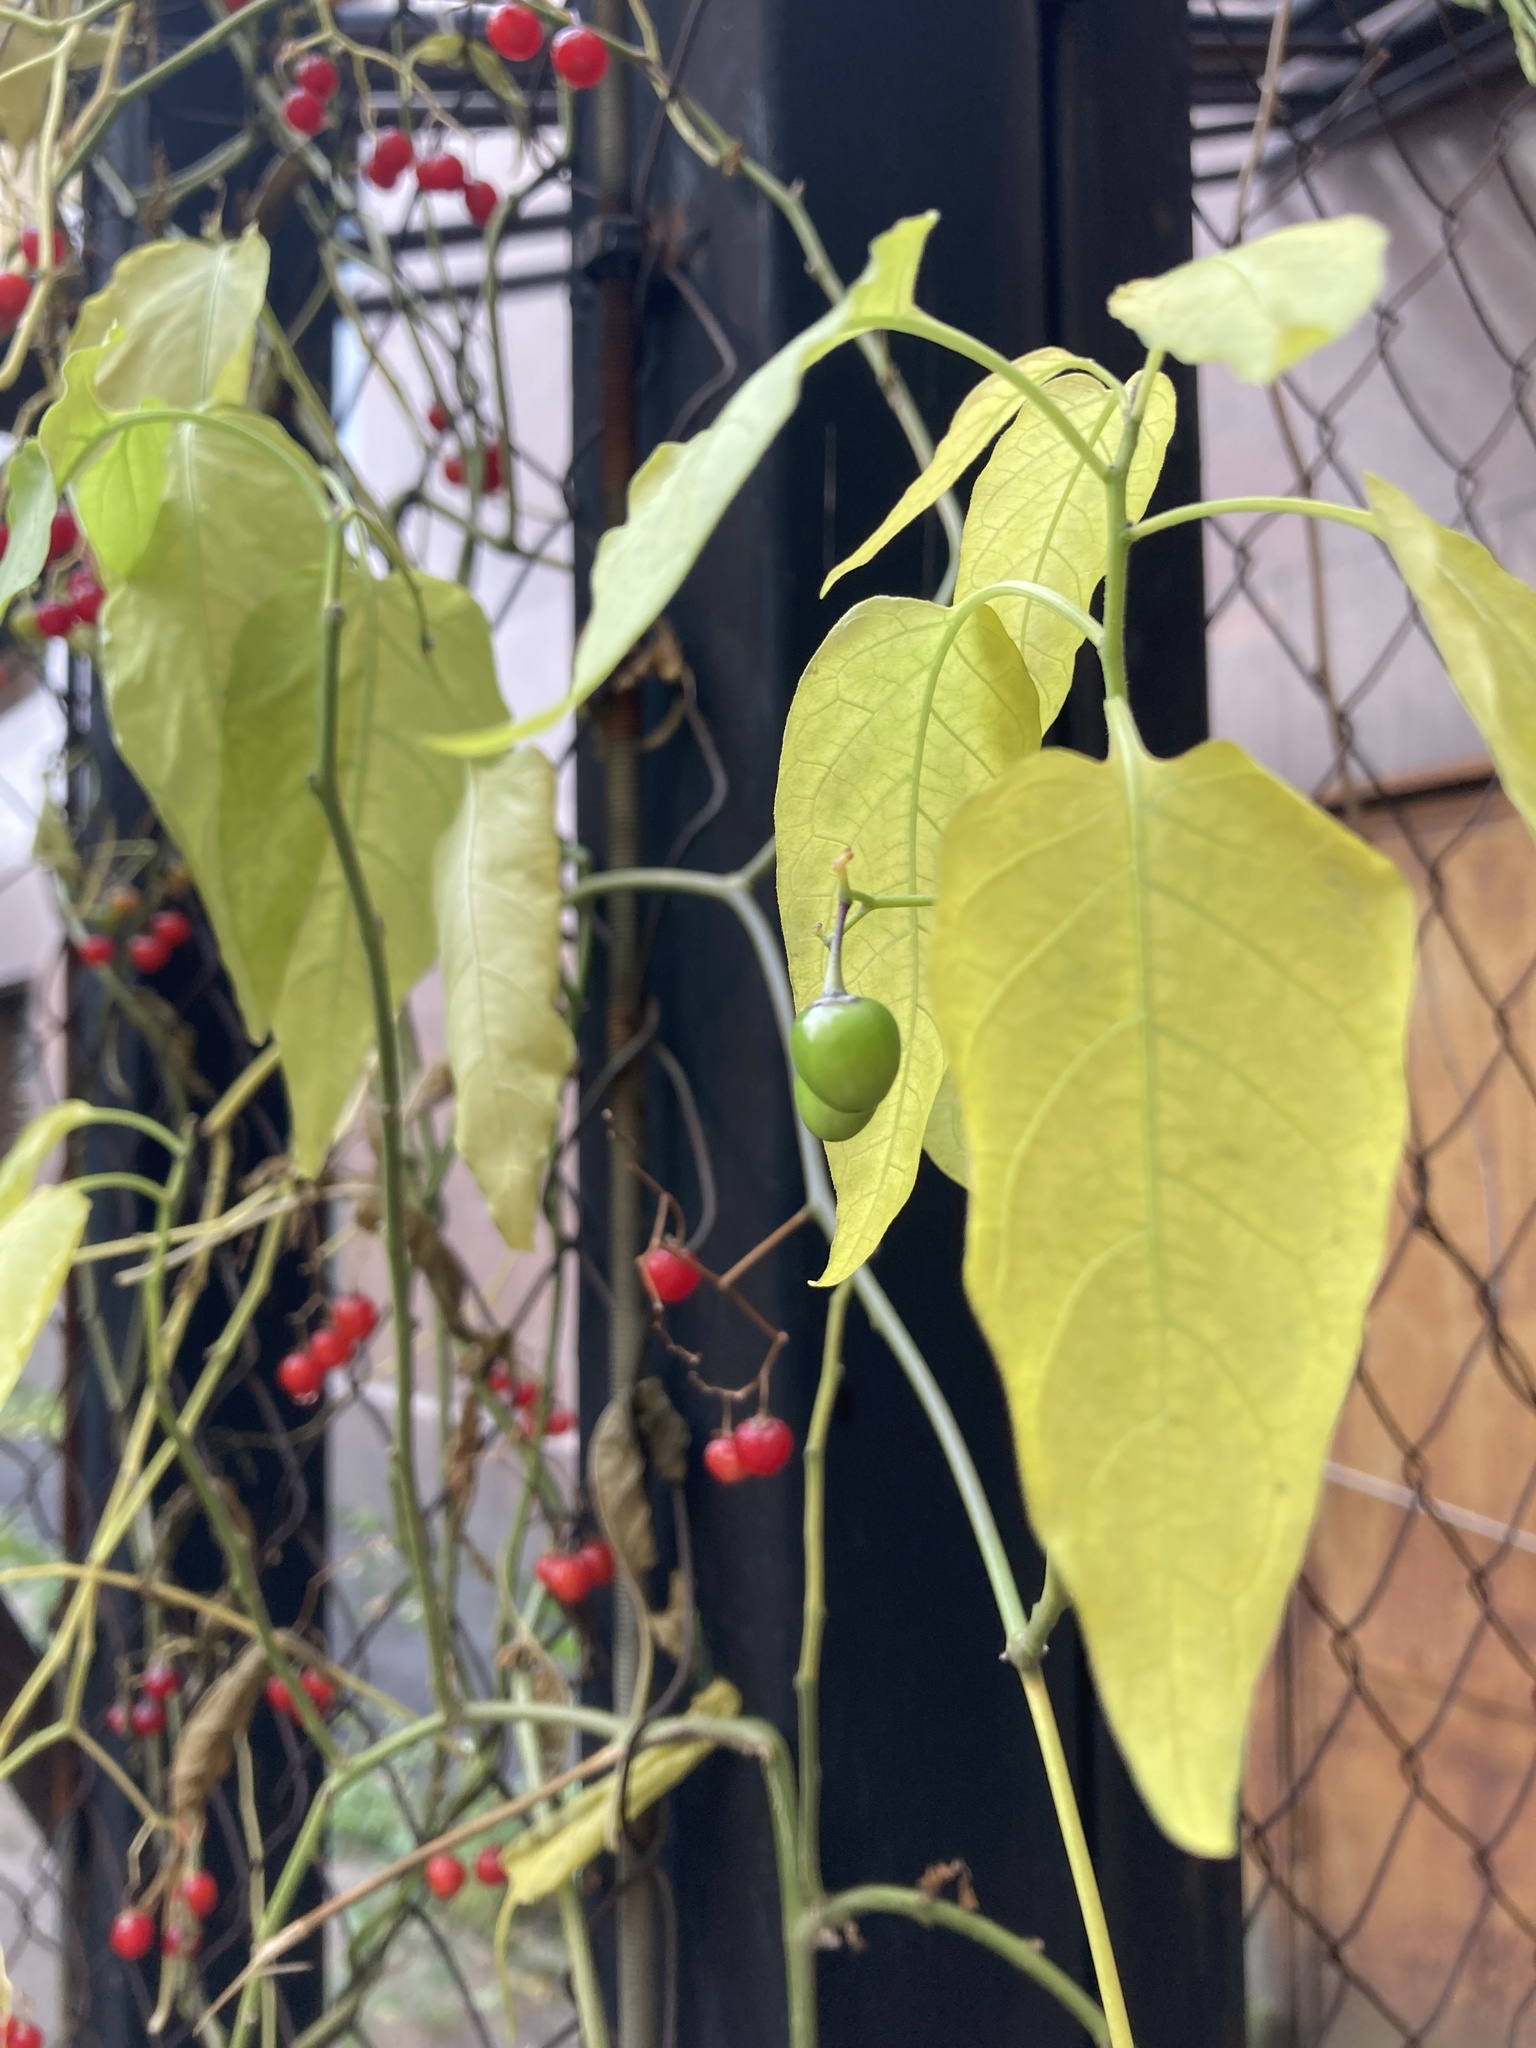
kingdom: Plantae
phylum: Tracheophyta
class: Magnoliopsida
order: Solanales
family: Solanaceae
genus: Solanum
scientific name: Solanum dulcamara
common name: Climbing nightshade
